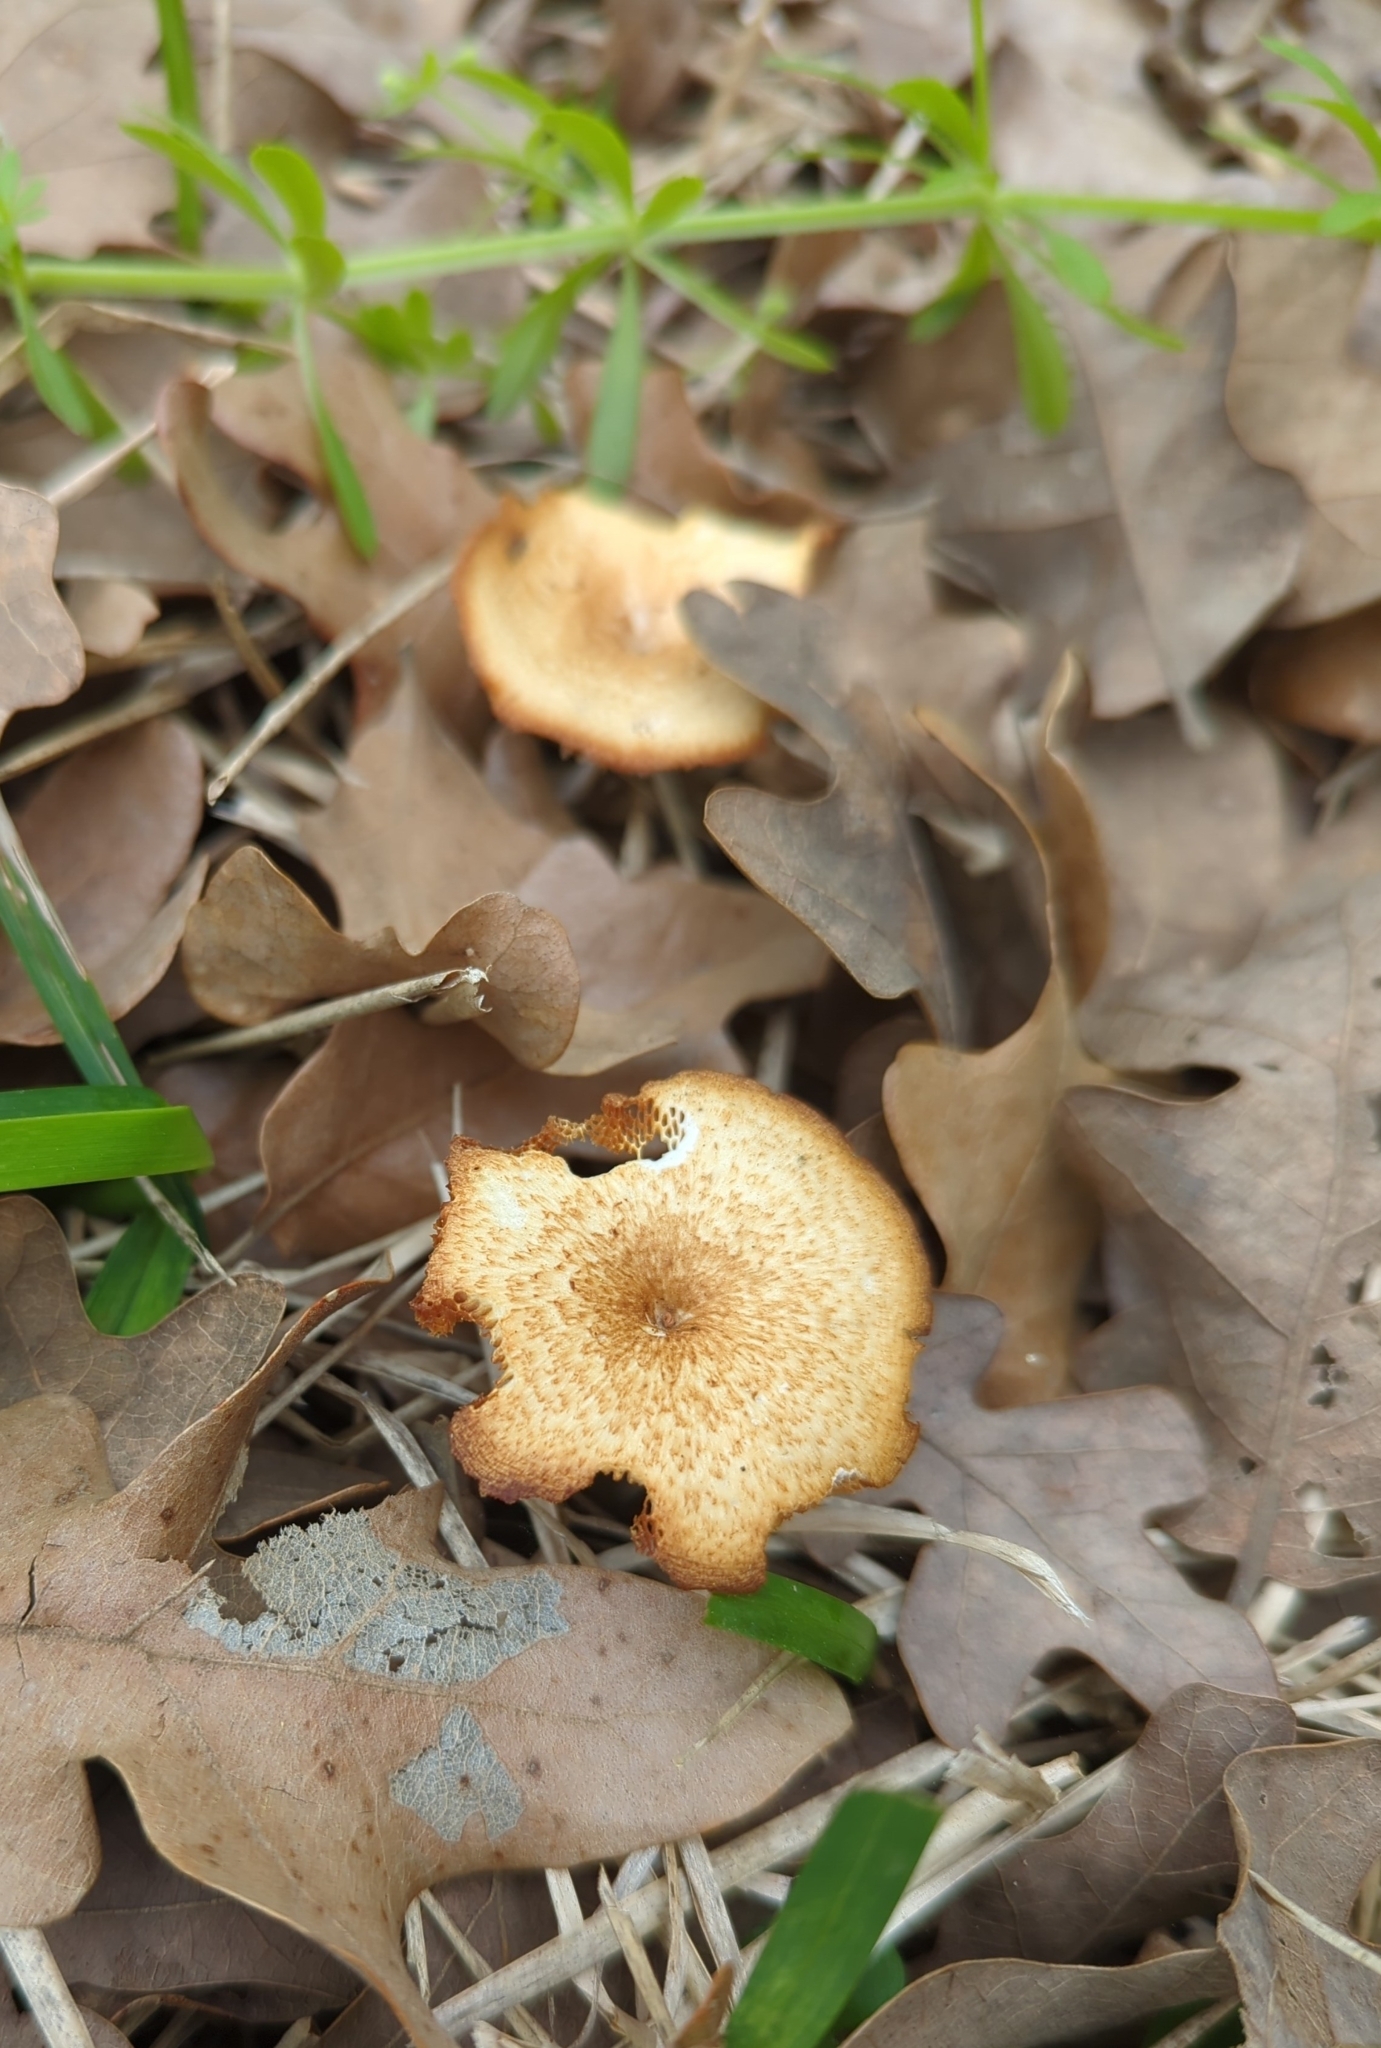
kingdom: Fungi
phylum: Basidiomycota
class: Agaricomycetes
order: Polyporales
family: Polyporaceae
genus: Lentinus
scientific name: Lentinus arcularius
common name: Spring polypore
